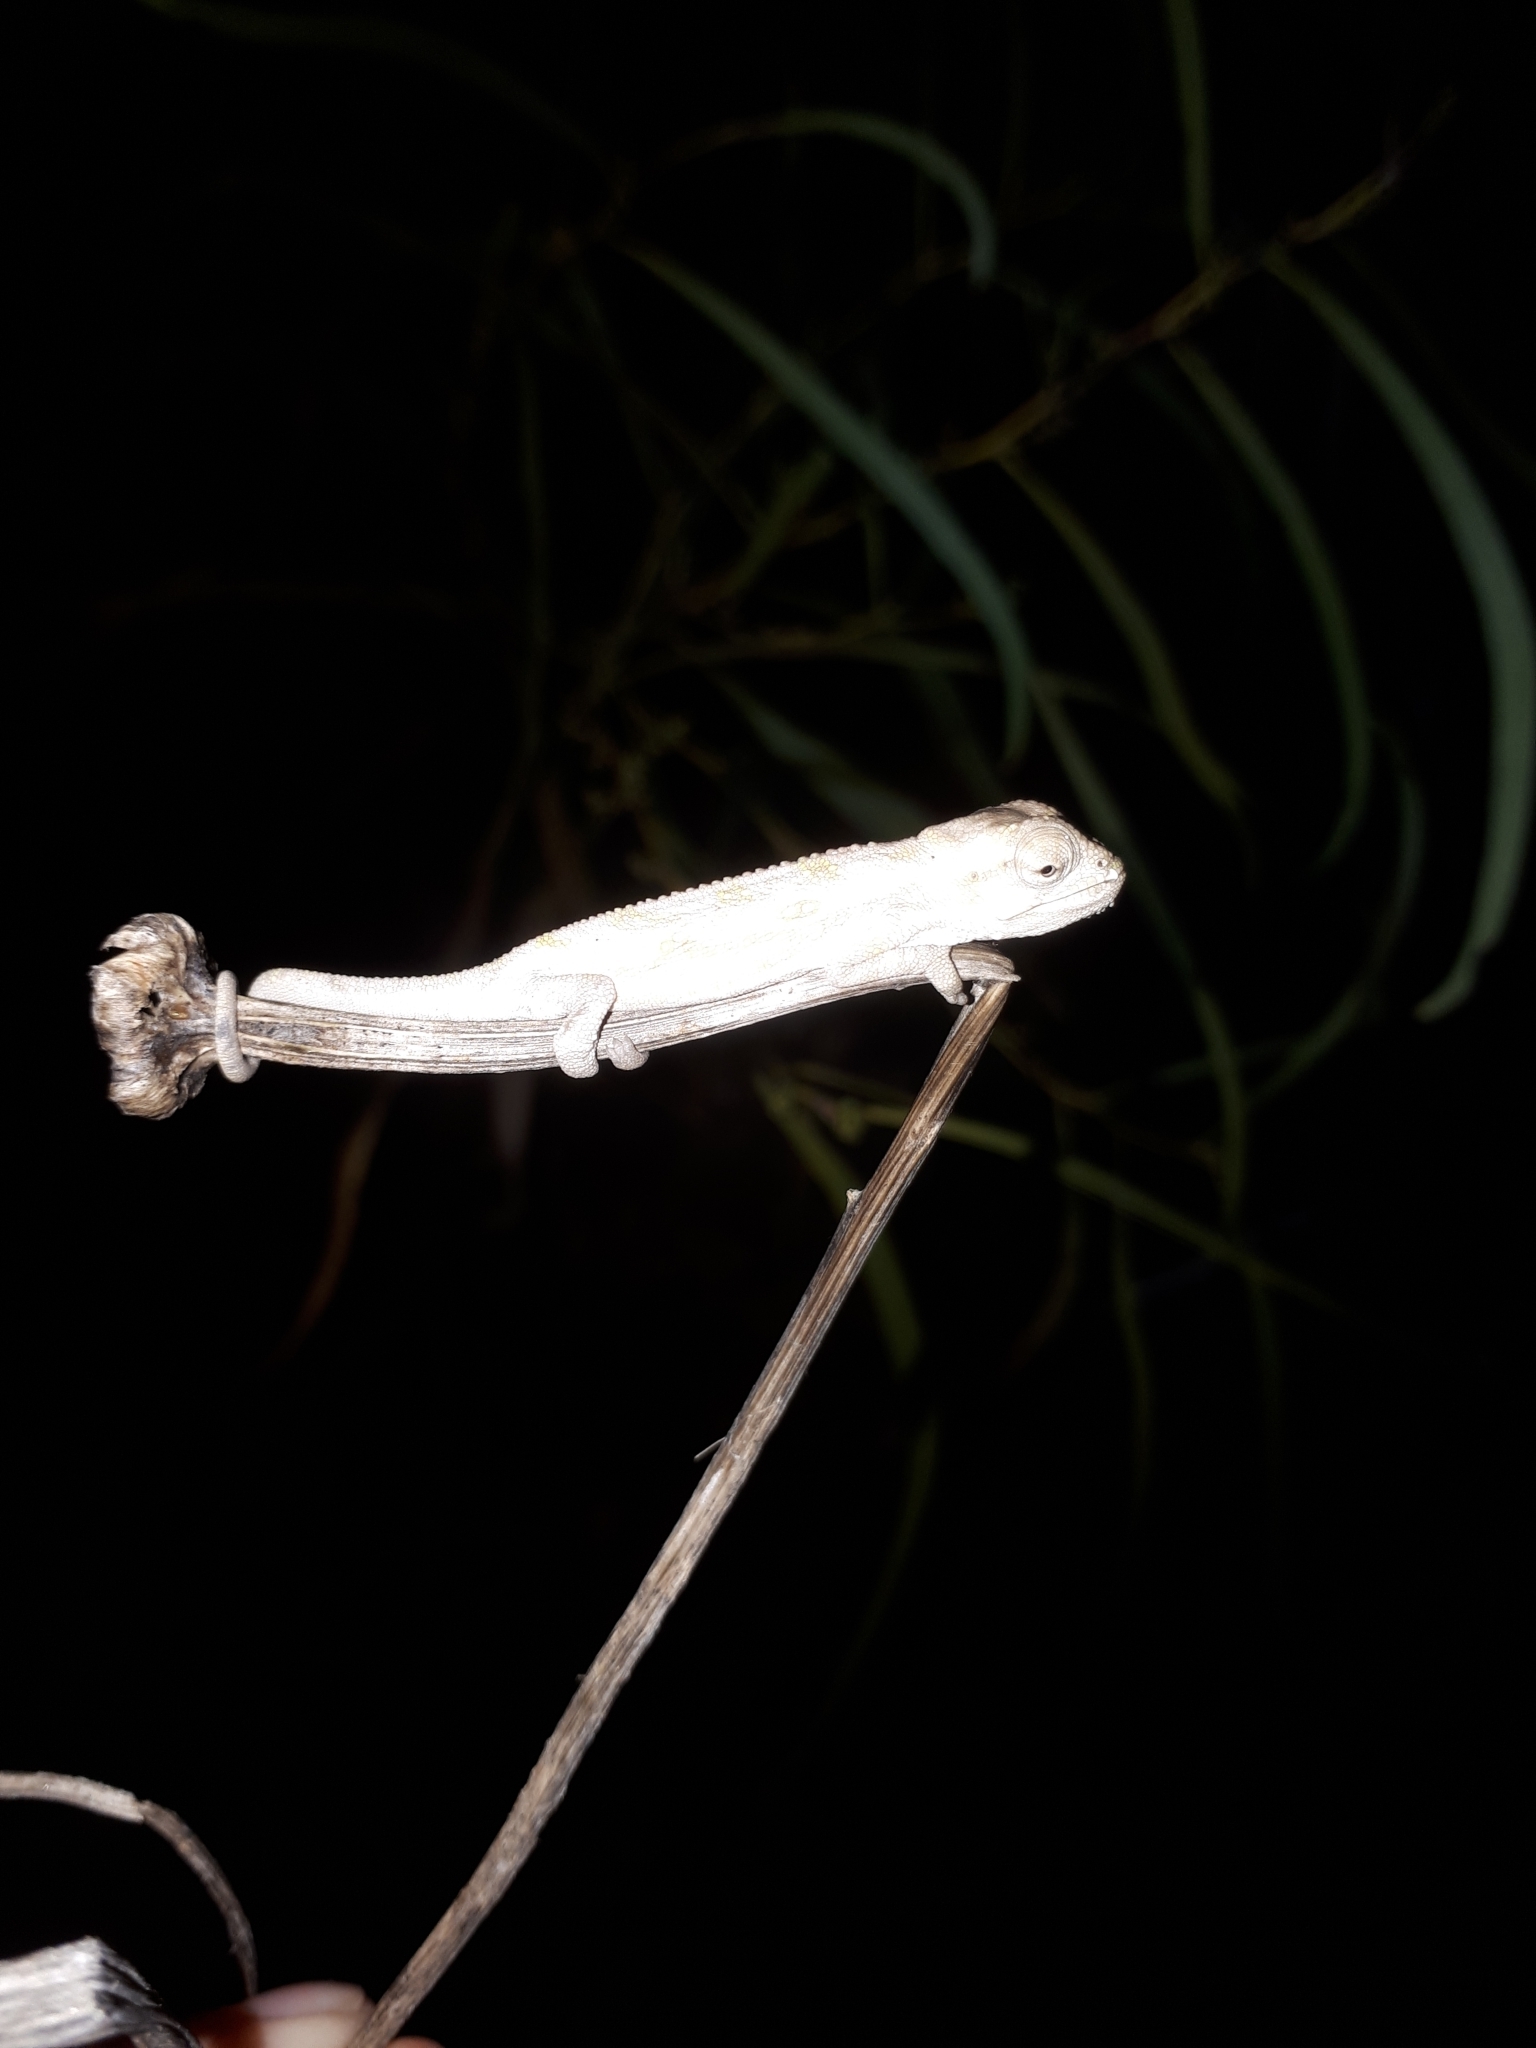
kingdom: Animalia
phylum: Chordata
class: Squamata
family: Chamaeleonidae
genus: Bradypodion
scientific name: Bradypodion pumilum
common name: Cape dwarf chameleon
